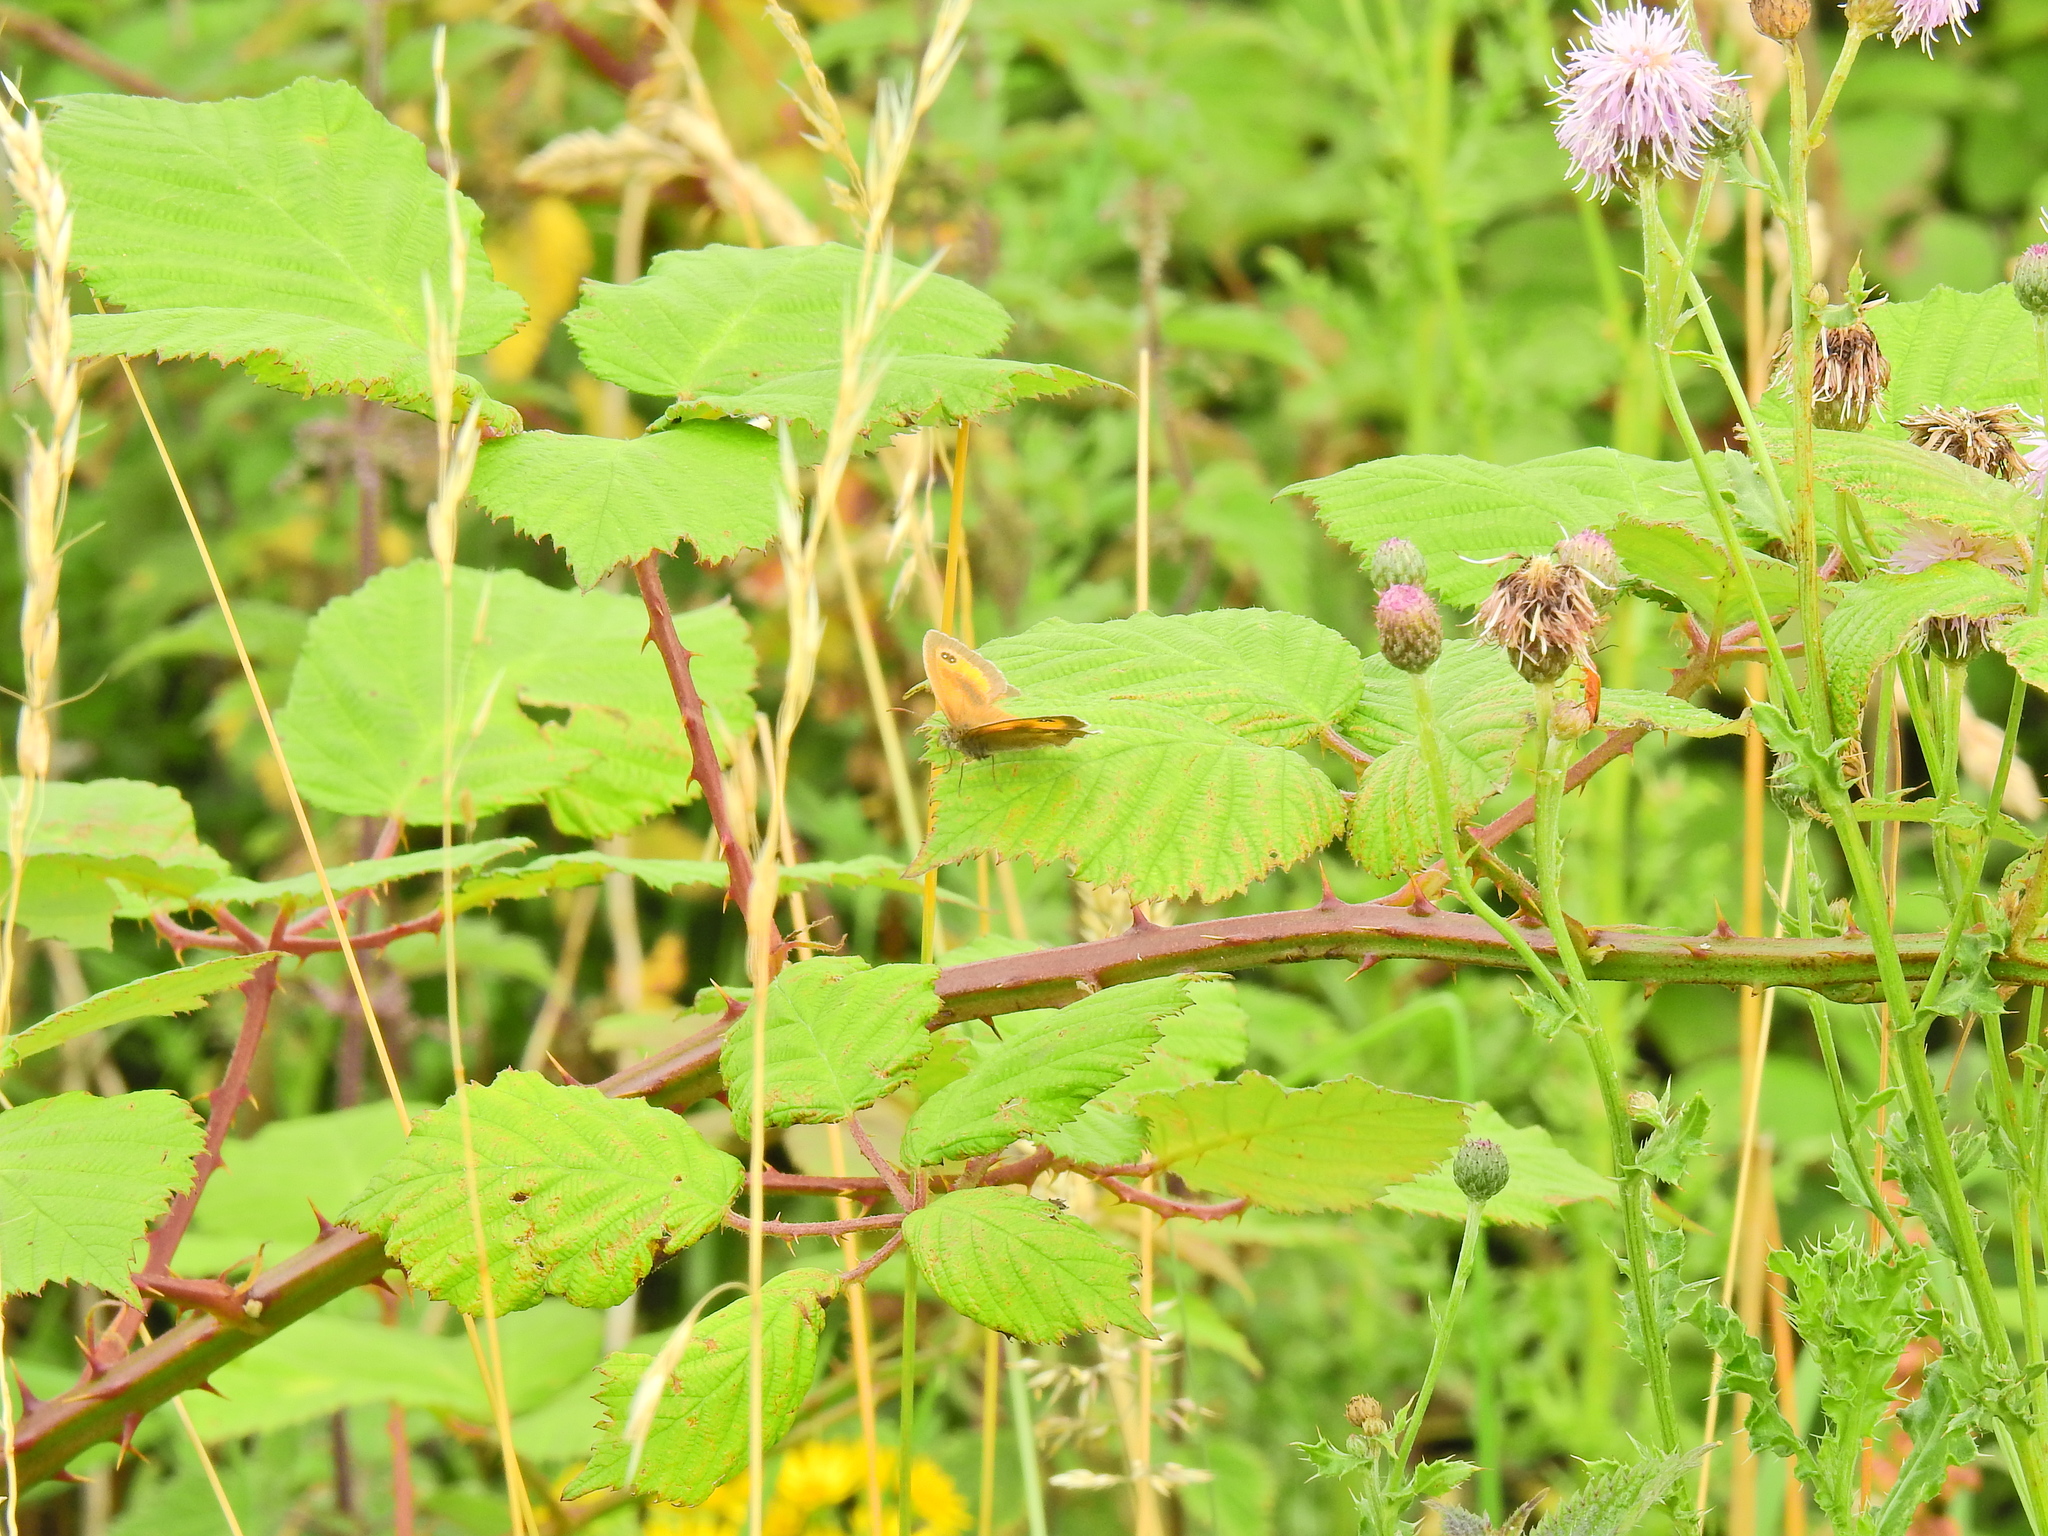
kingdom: Animalia
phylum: Arthropoda
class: Insecta
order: Lepidoptera
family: Nymphalidae
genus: Pyronia
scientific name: Pyronia tithonus
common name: Gatekeeper
